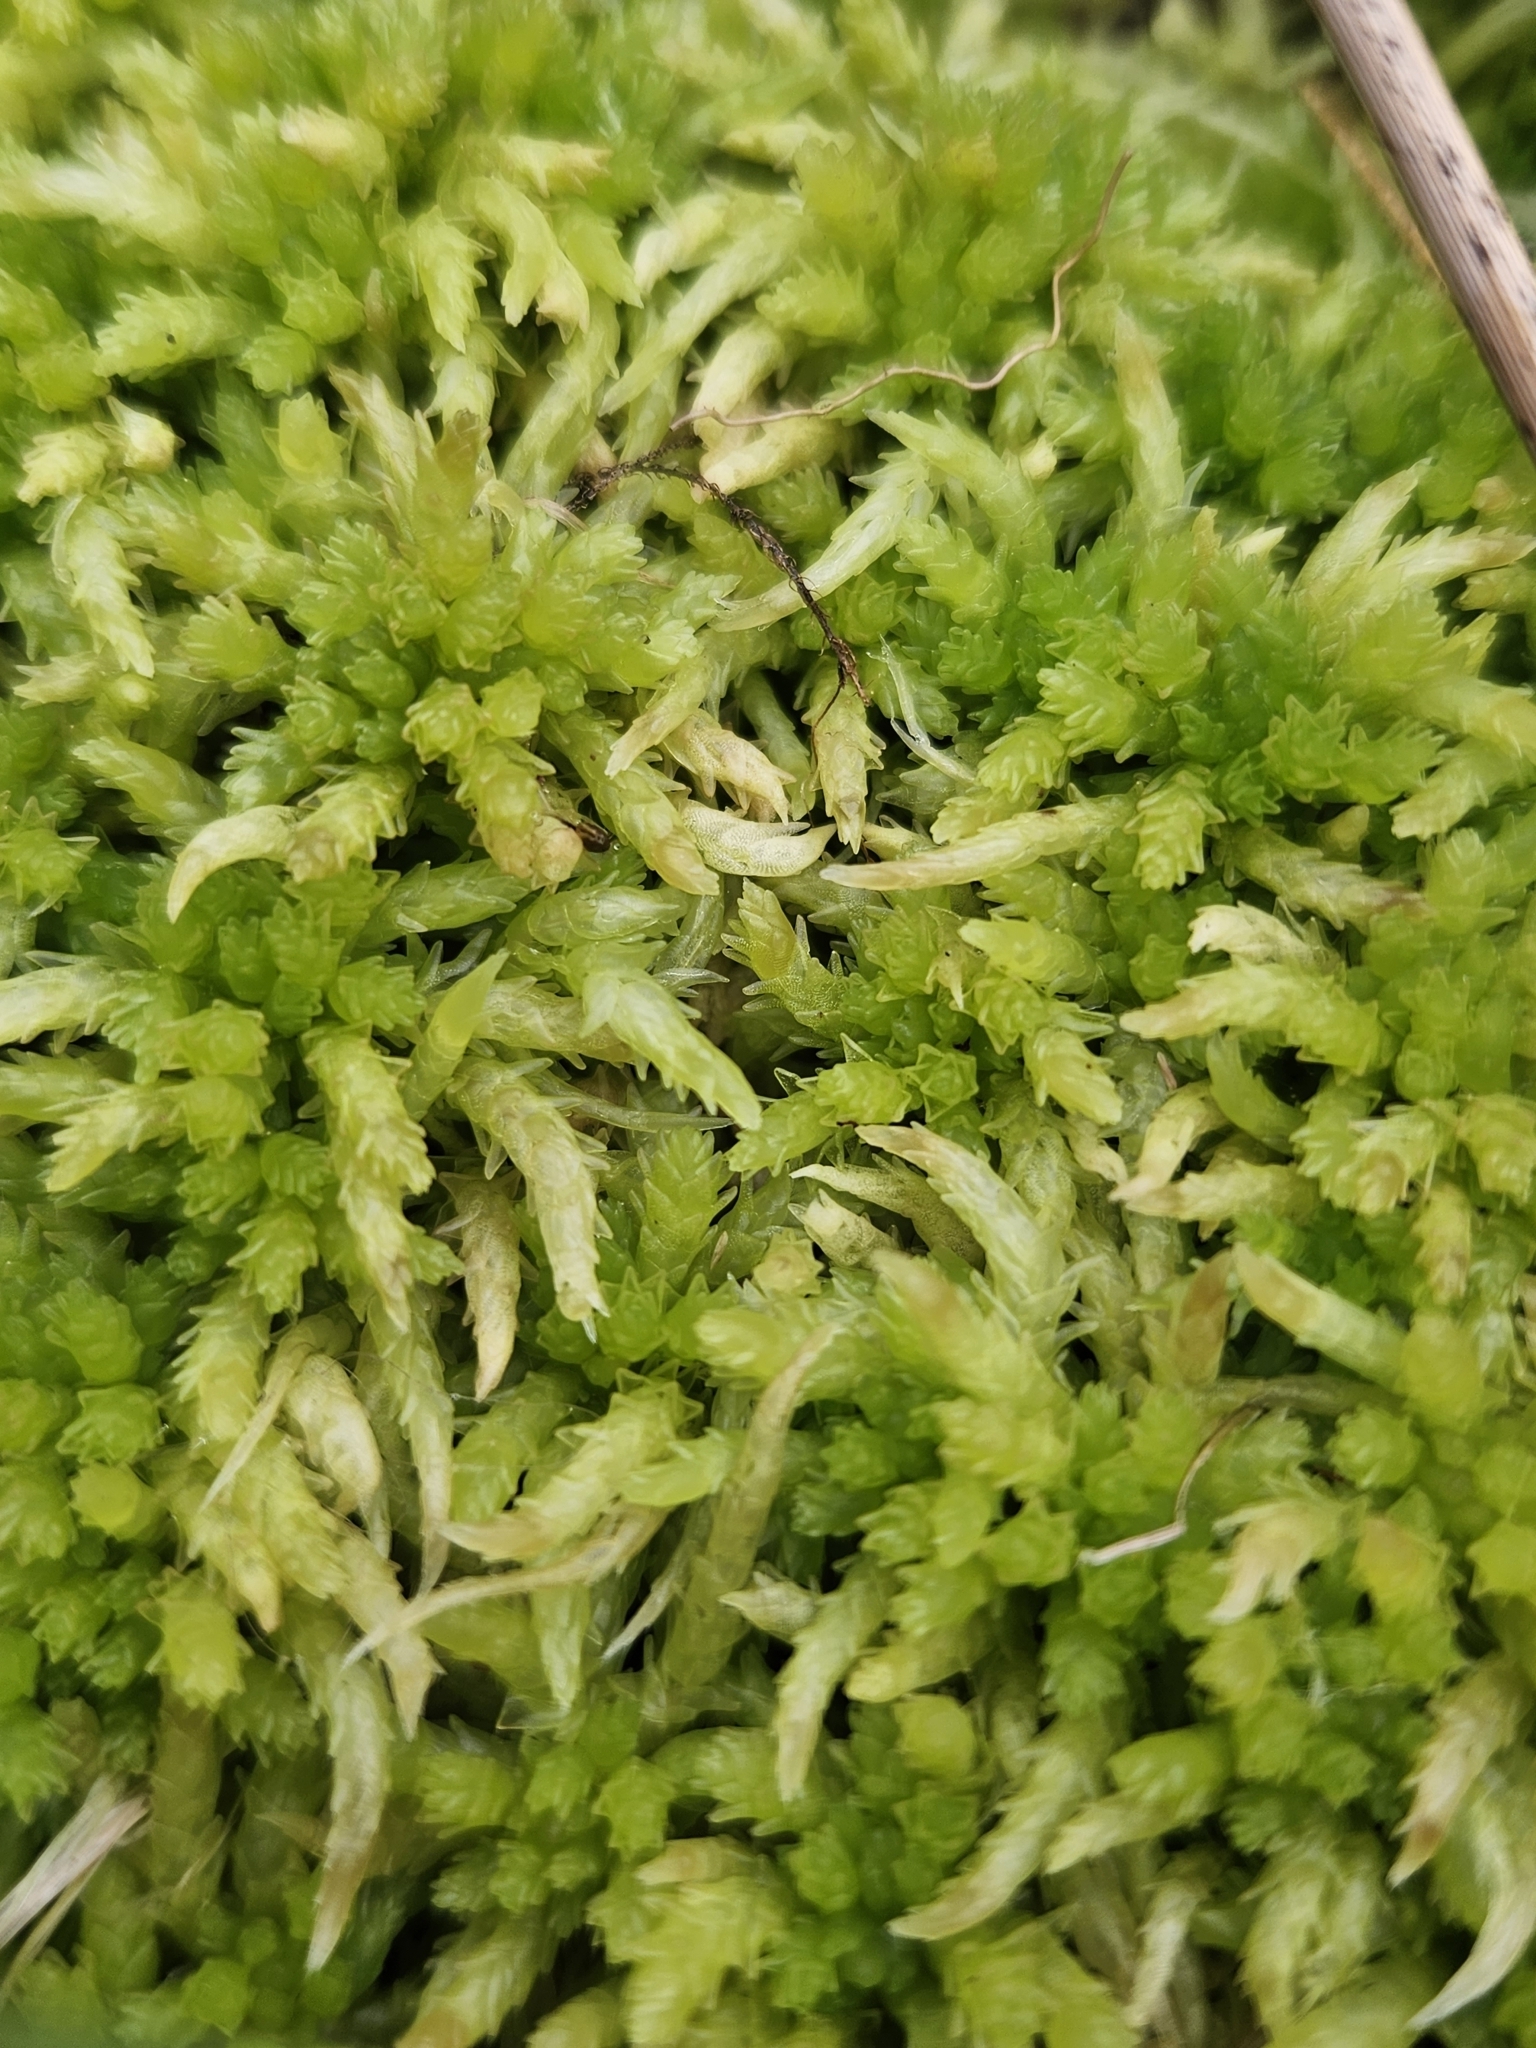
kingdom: Plantae
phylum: Bryophyta
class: Sphagnopsida
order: Sphagnales
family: Sphagnaceae
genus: Sphagnum
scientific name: Sphagnum palustre
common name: Blunt-leaved bog-moss
